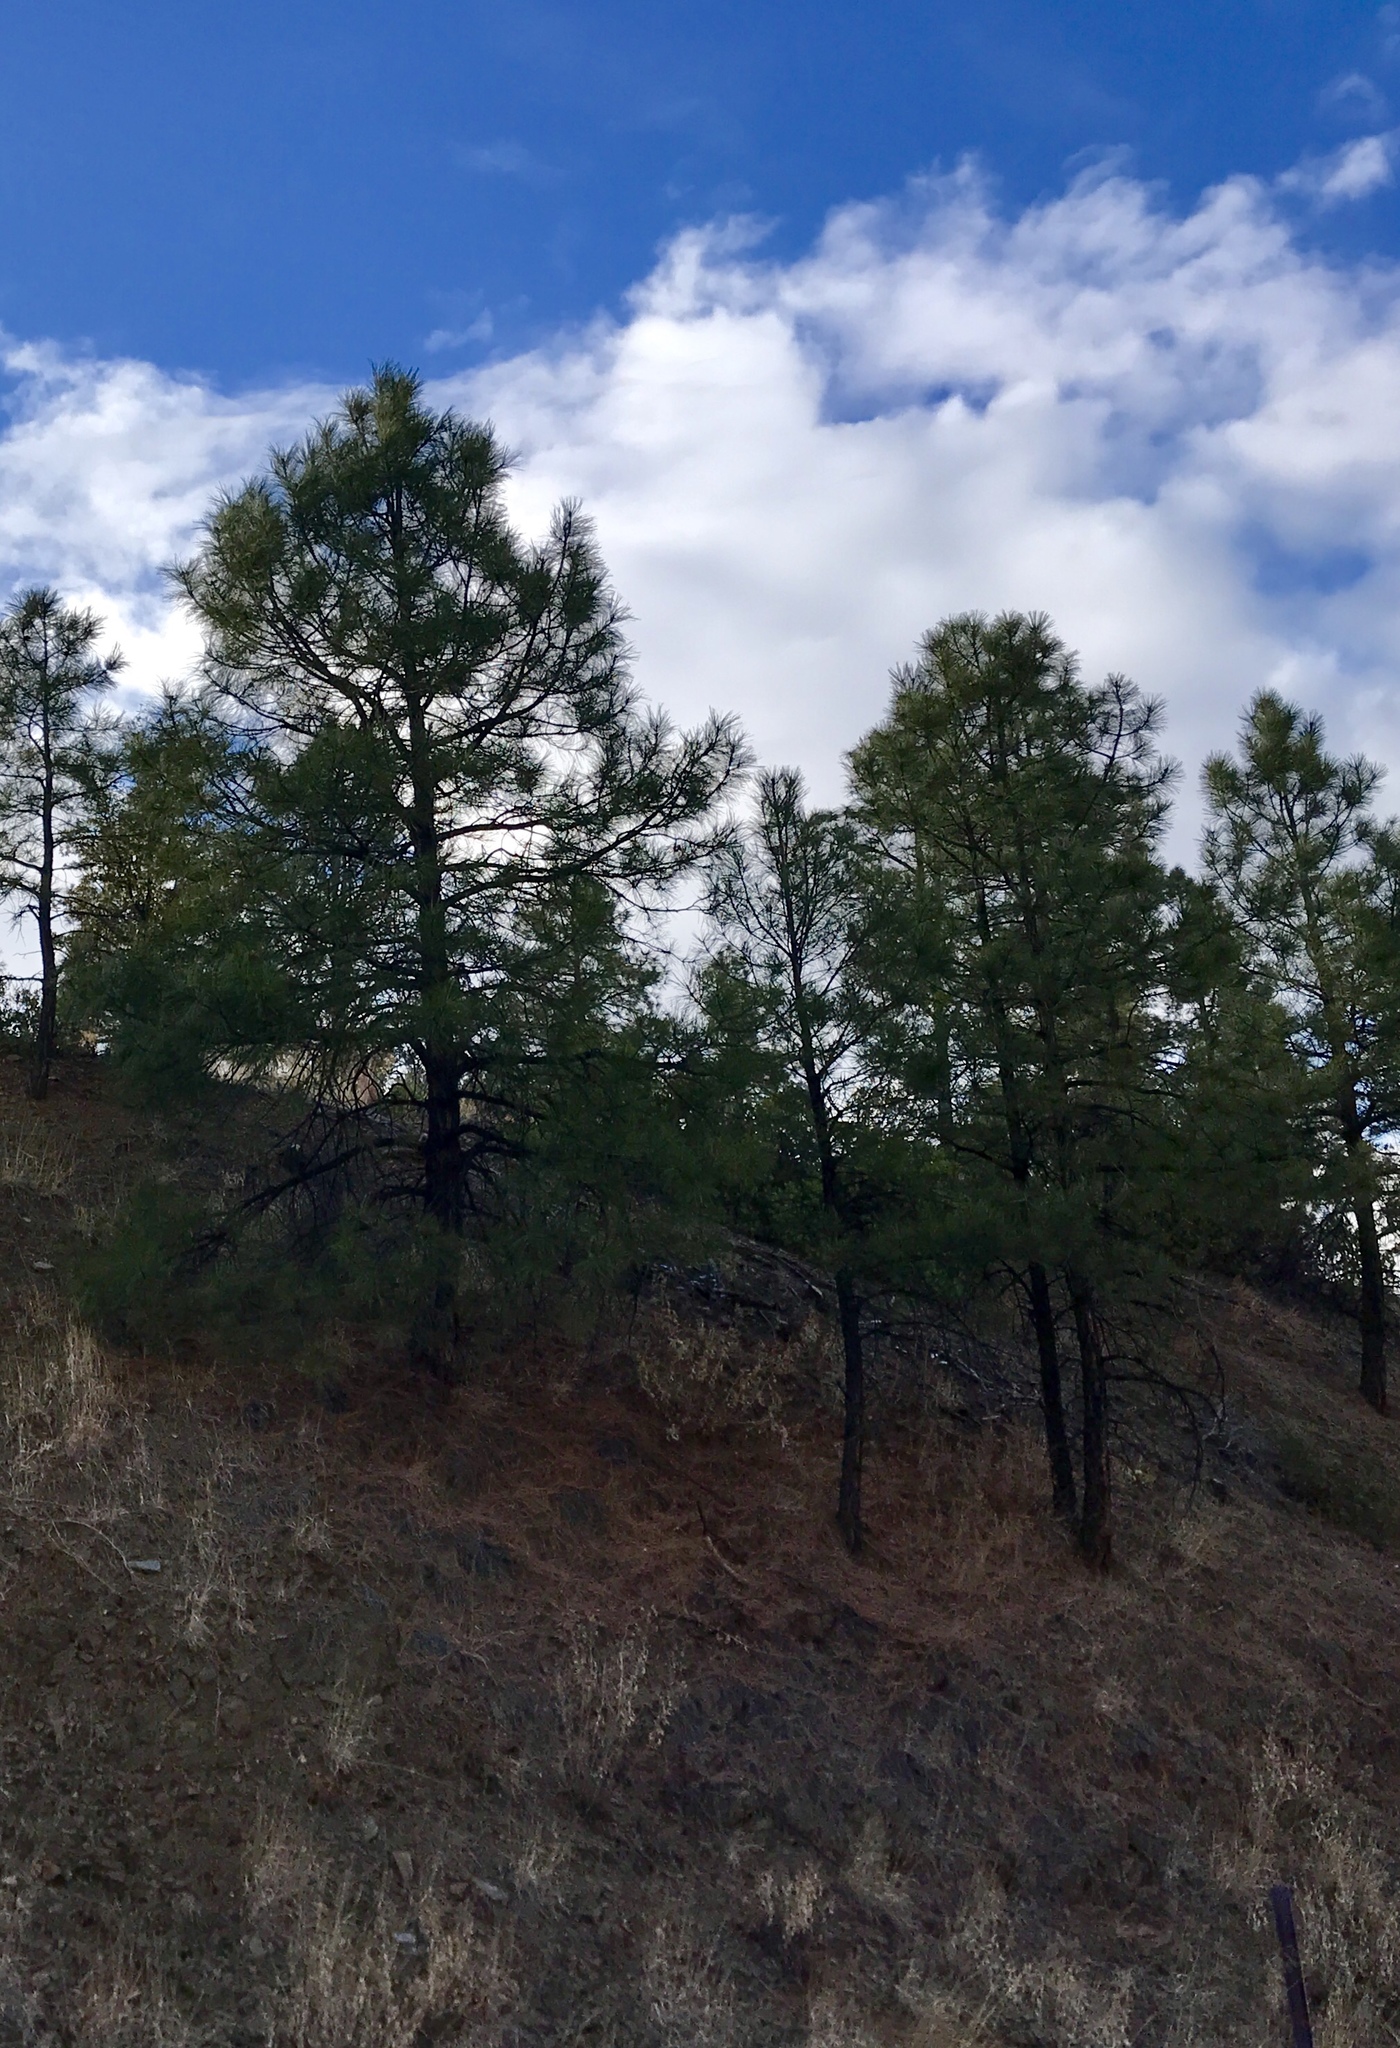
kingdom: Plantae
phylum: Tracheophyta
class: Pinopsida
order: Pinales
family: Pinaceae
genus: Pinus
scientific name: Pinus ponderosa
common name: Western yellow-pine
